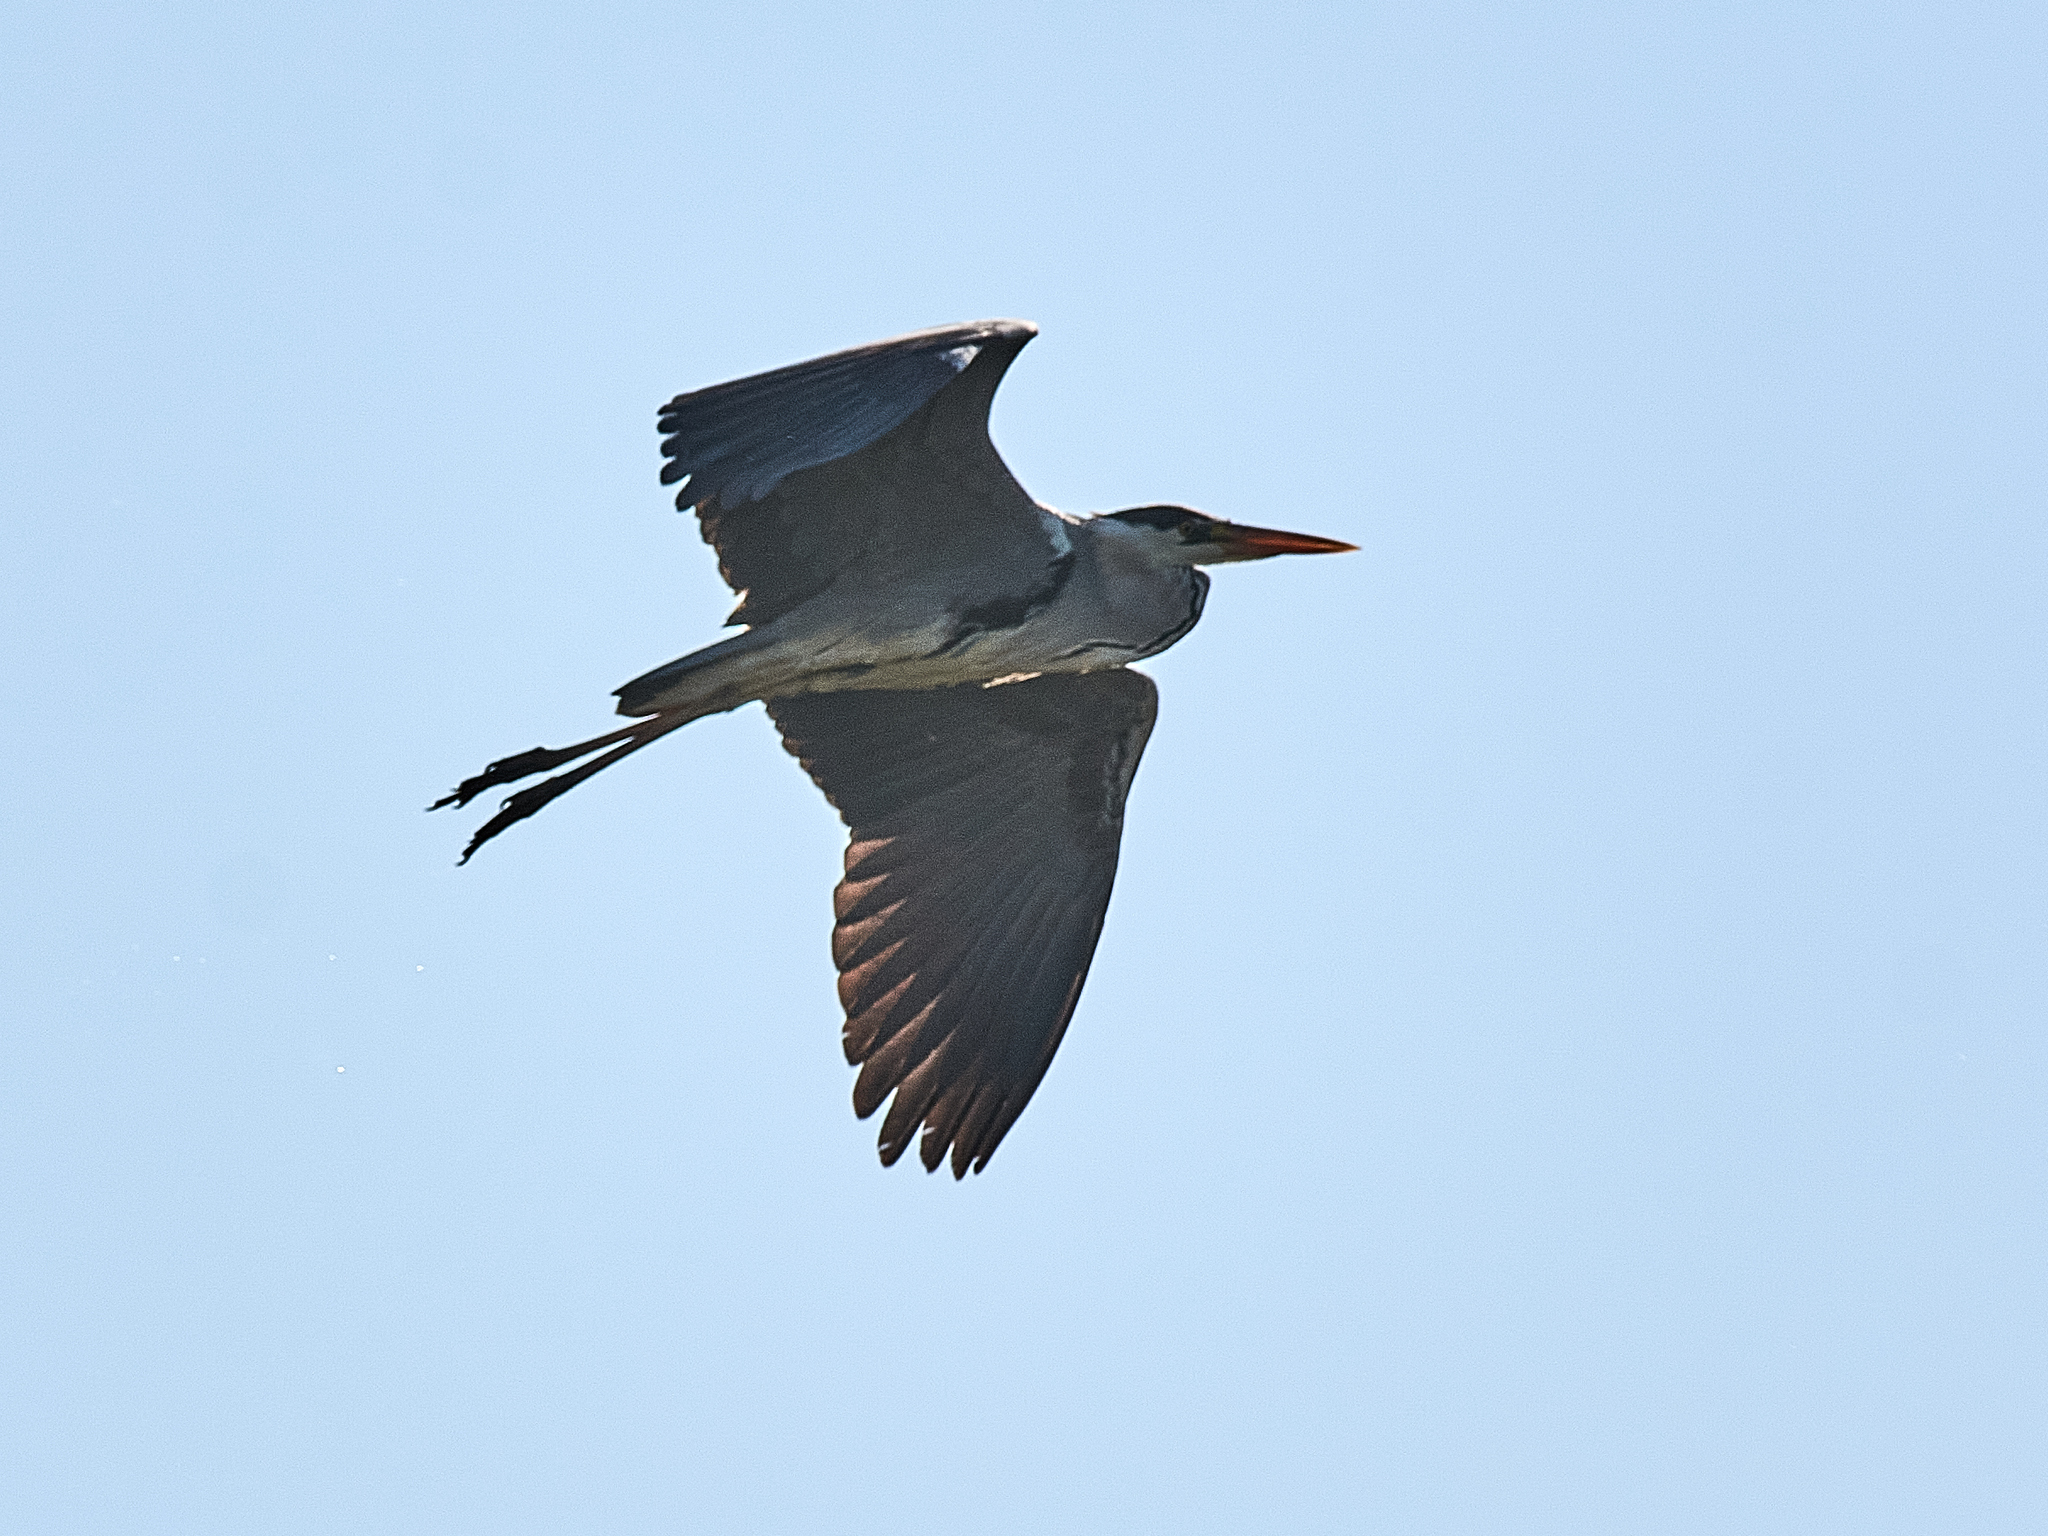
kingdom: Animalia
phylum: Chordata
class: Aves
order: Pelecaniformes
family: Ardeidae
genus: Ardea
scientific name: Ardea cinerea
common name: Grey heron
